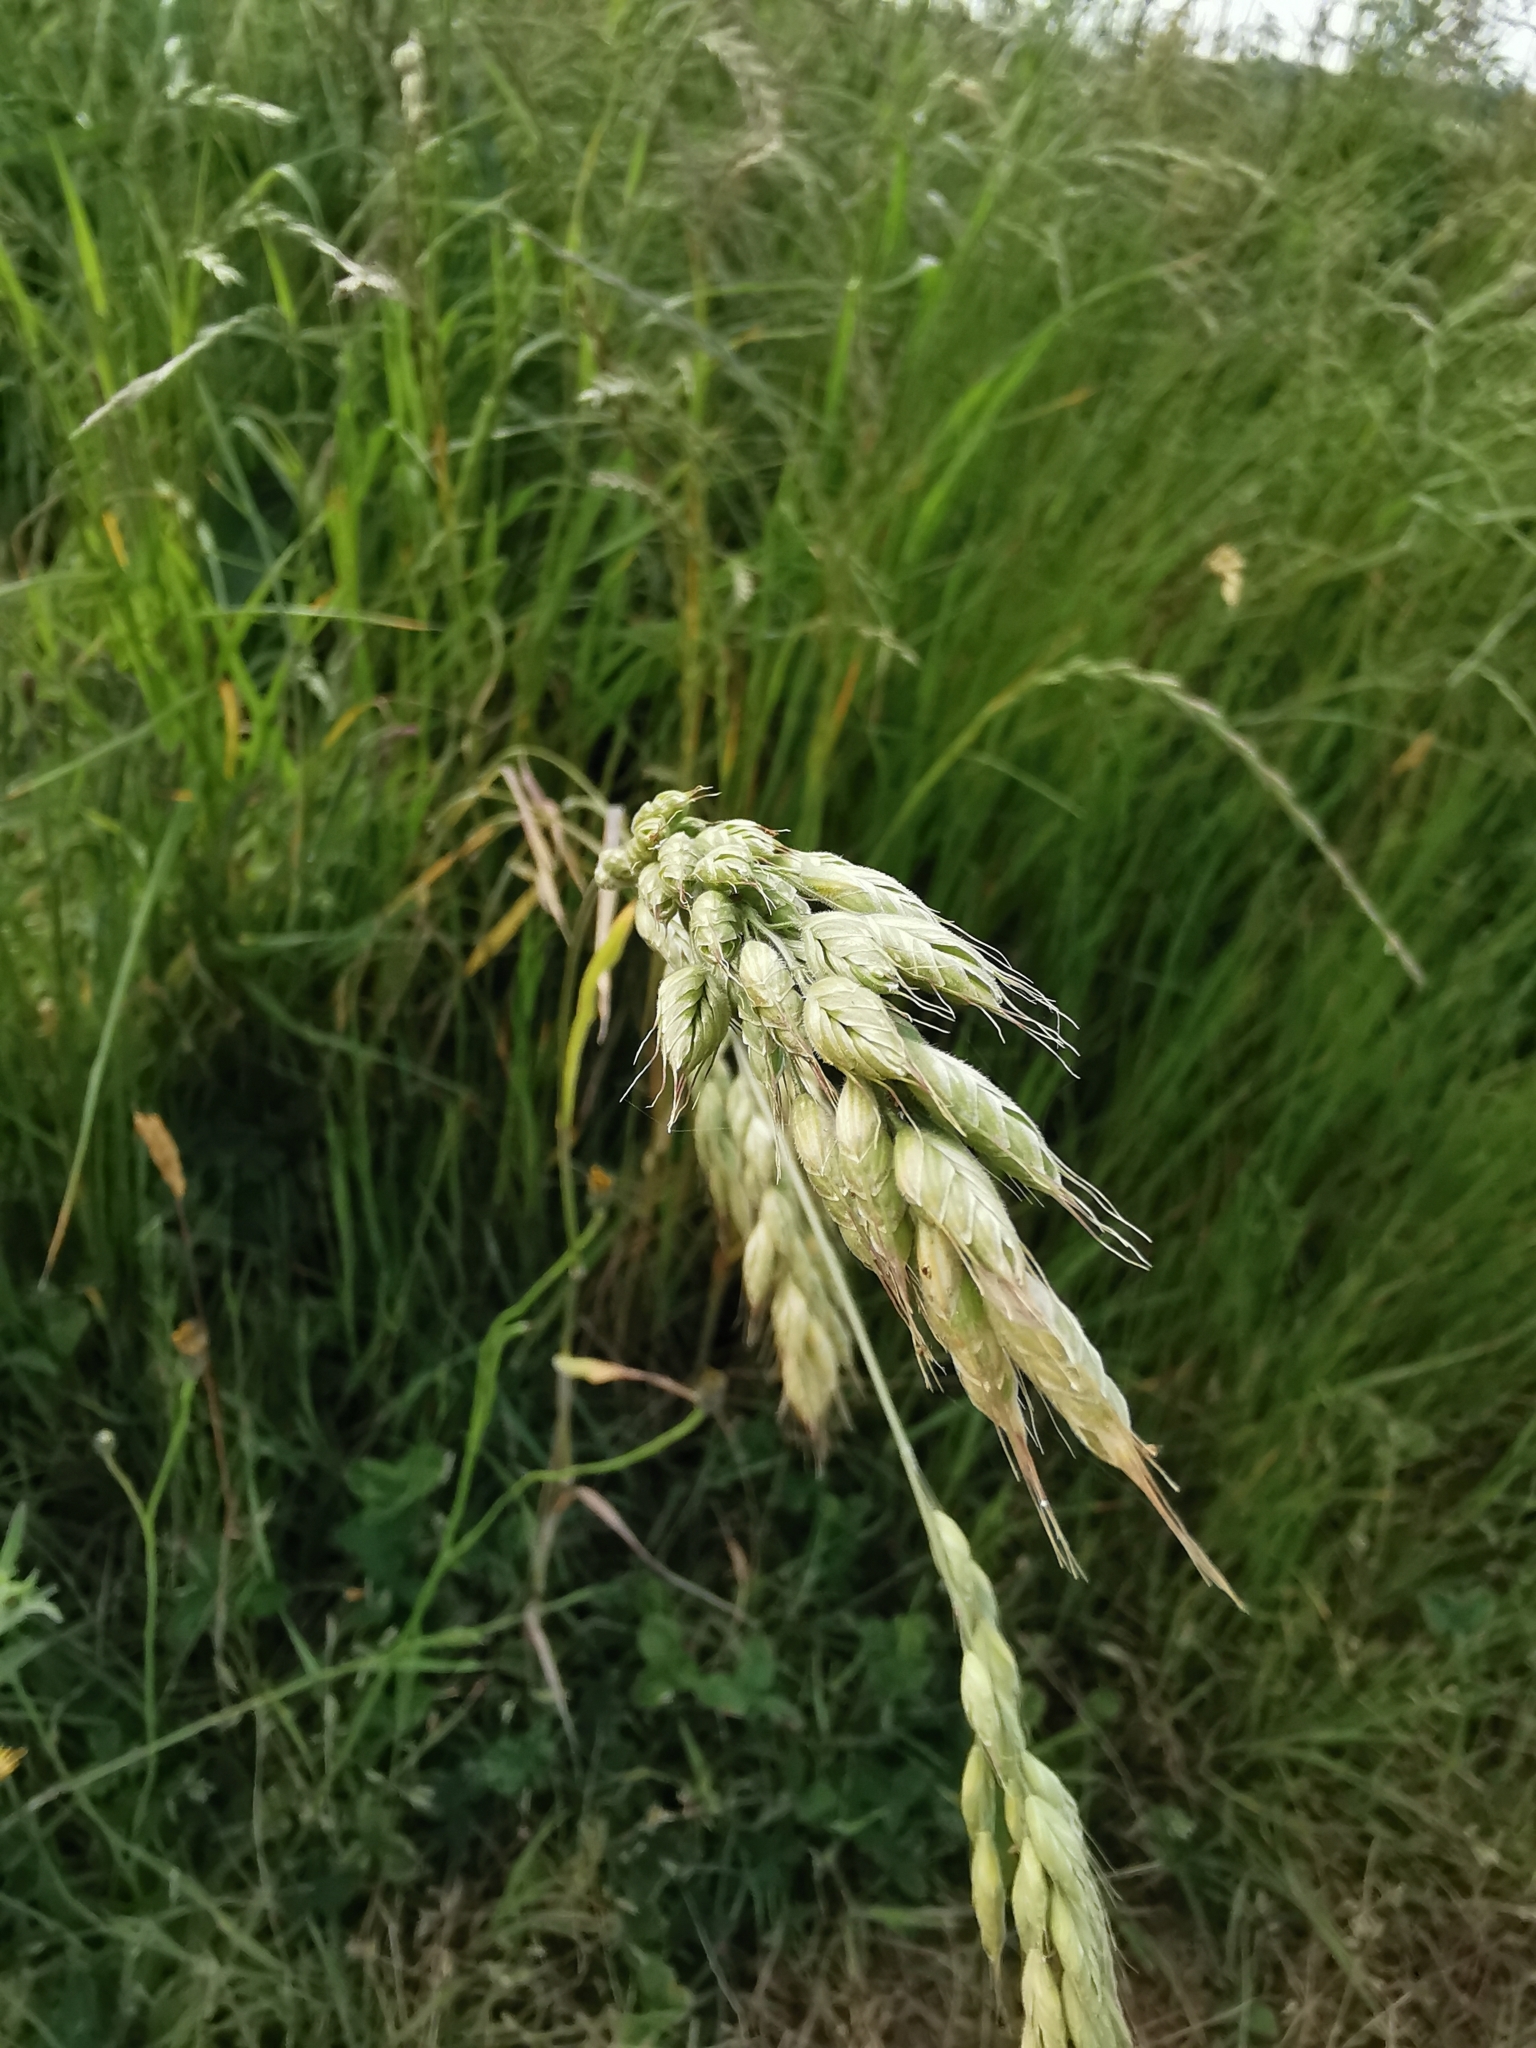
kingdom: Plantae
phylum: Tracheophyta
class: Liliopsida
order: Poales
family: Poaceae
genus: Bromus
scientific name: Bromus hordeaceus
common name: Soft brome
